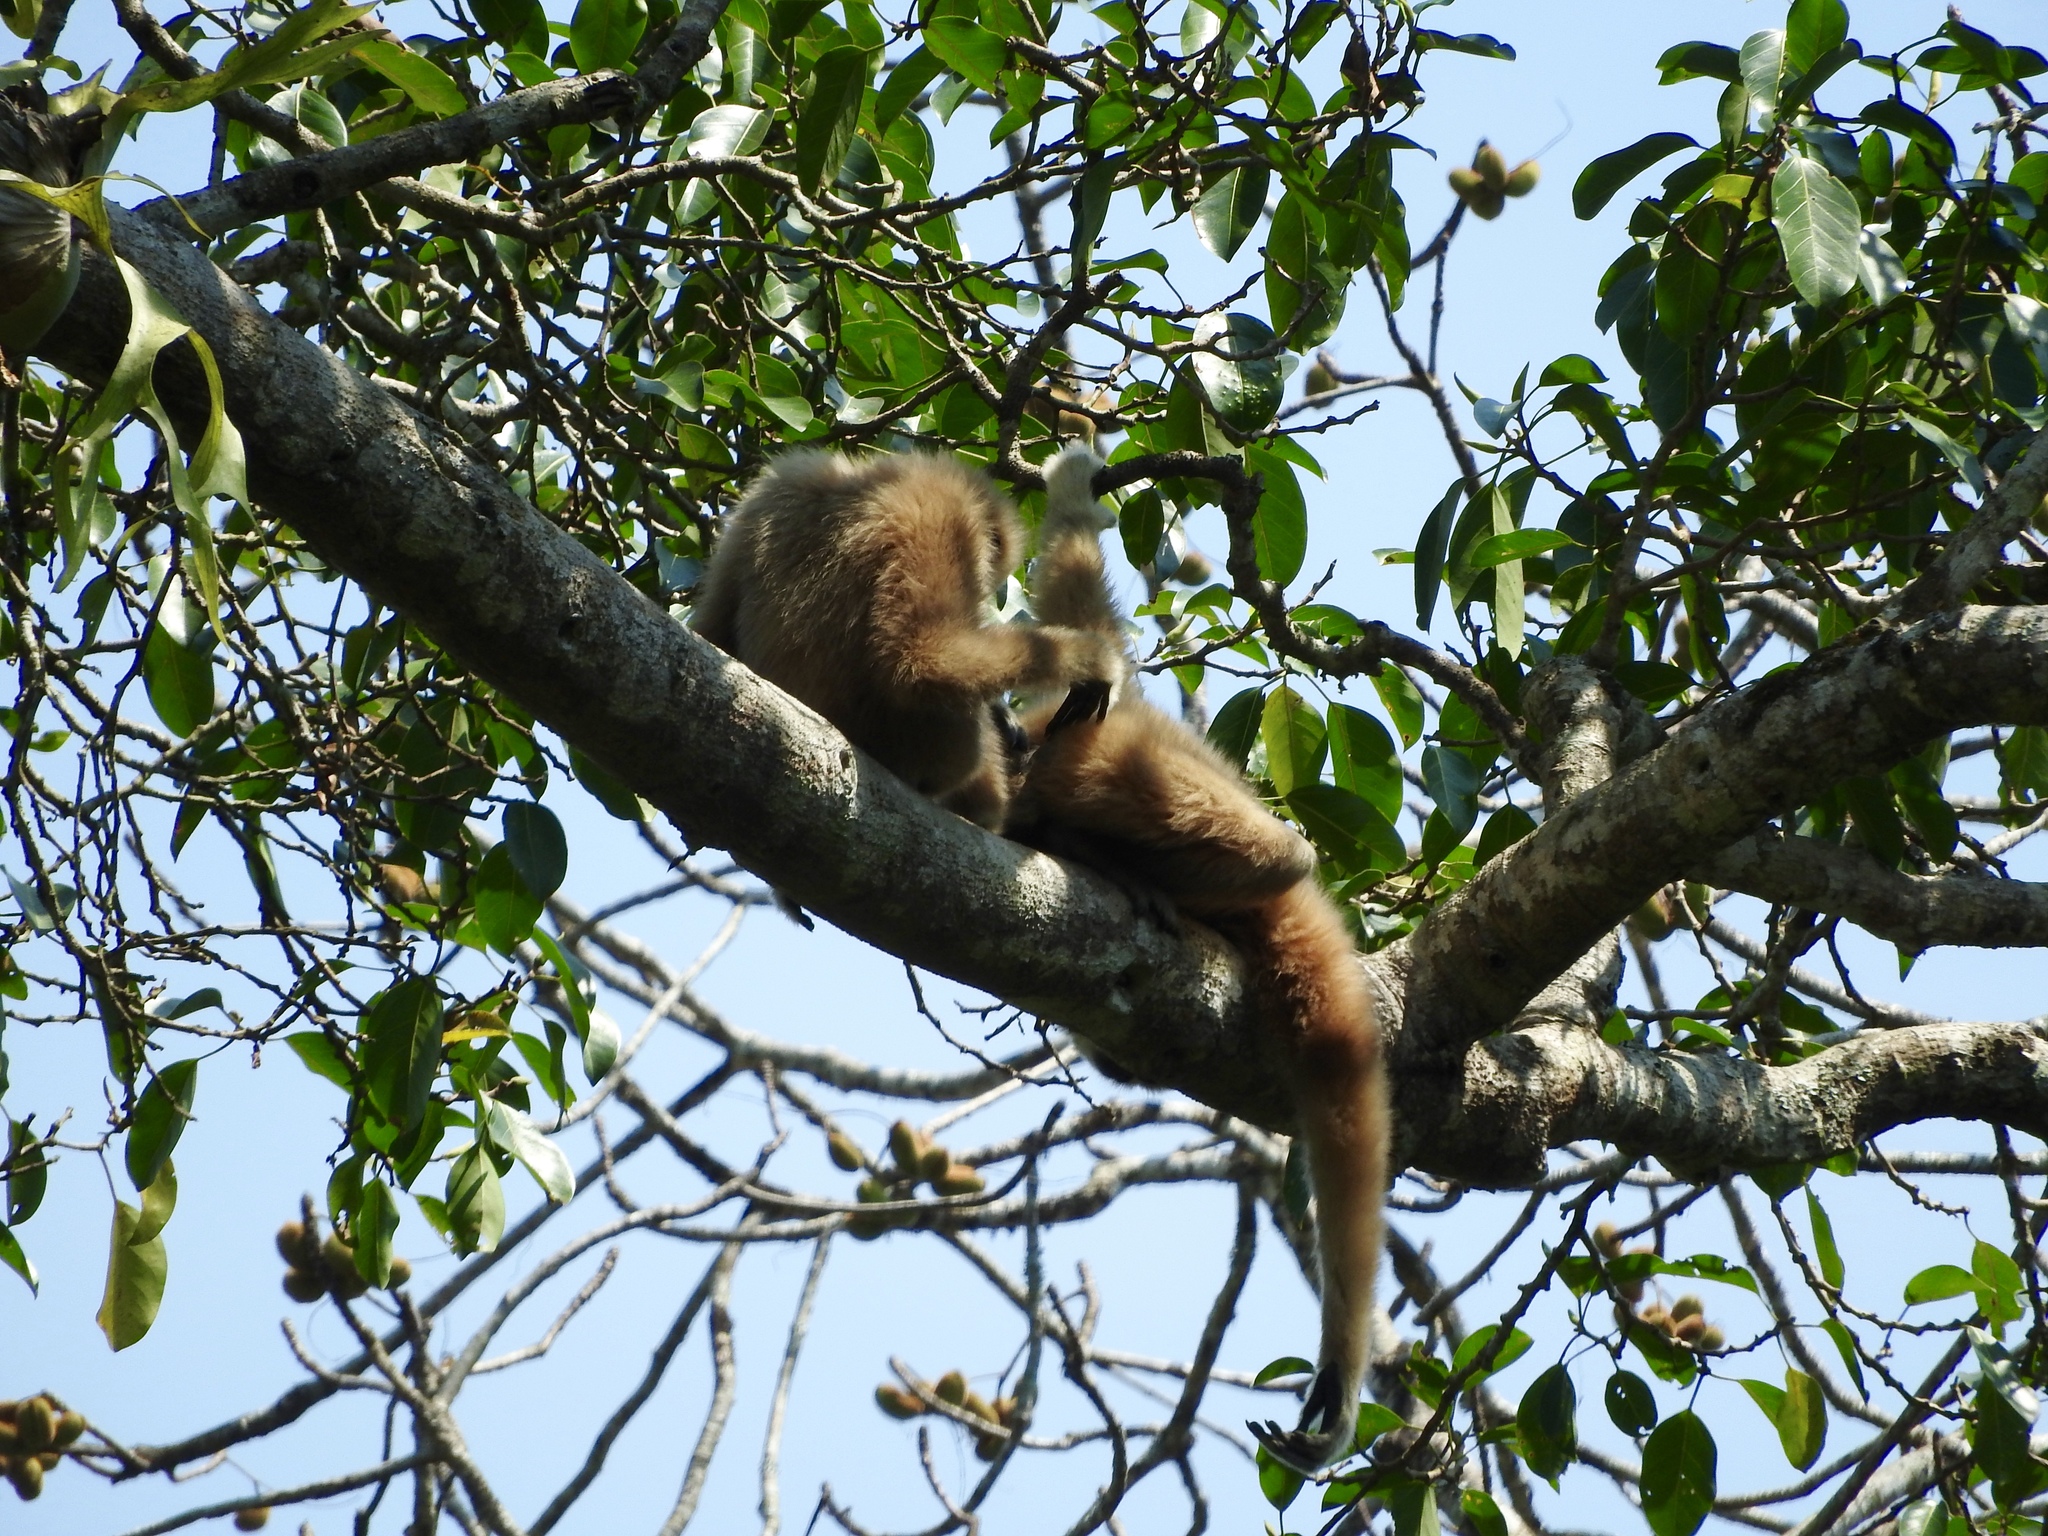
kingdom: Animalia
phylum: Chordata
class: Mammalia
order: Primates
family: Hylobatidae
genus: Hylobates
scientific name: Hylobates lar
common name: Lar gibbon
